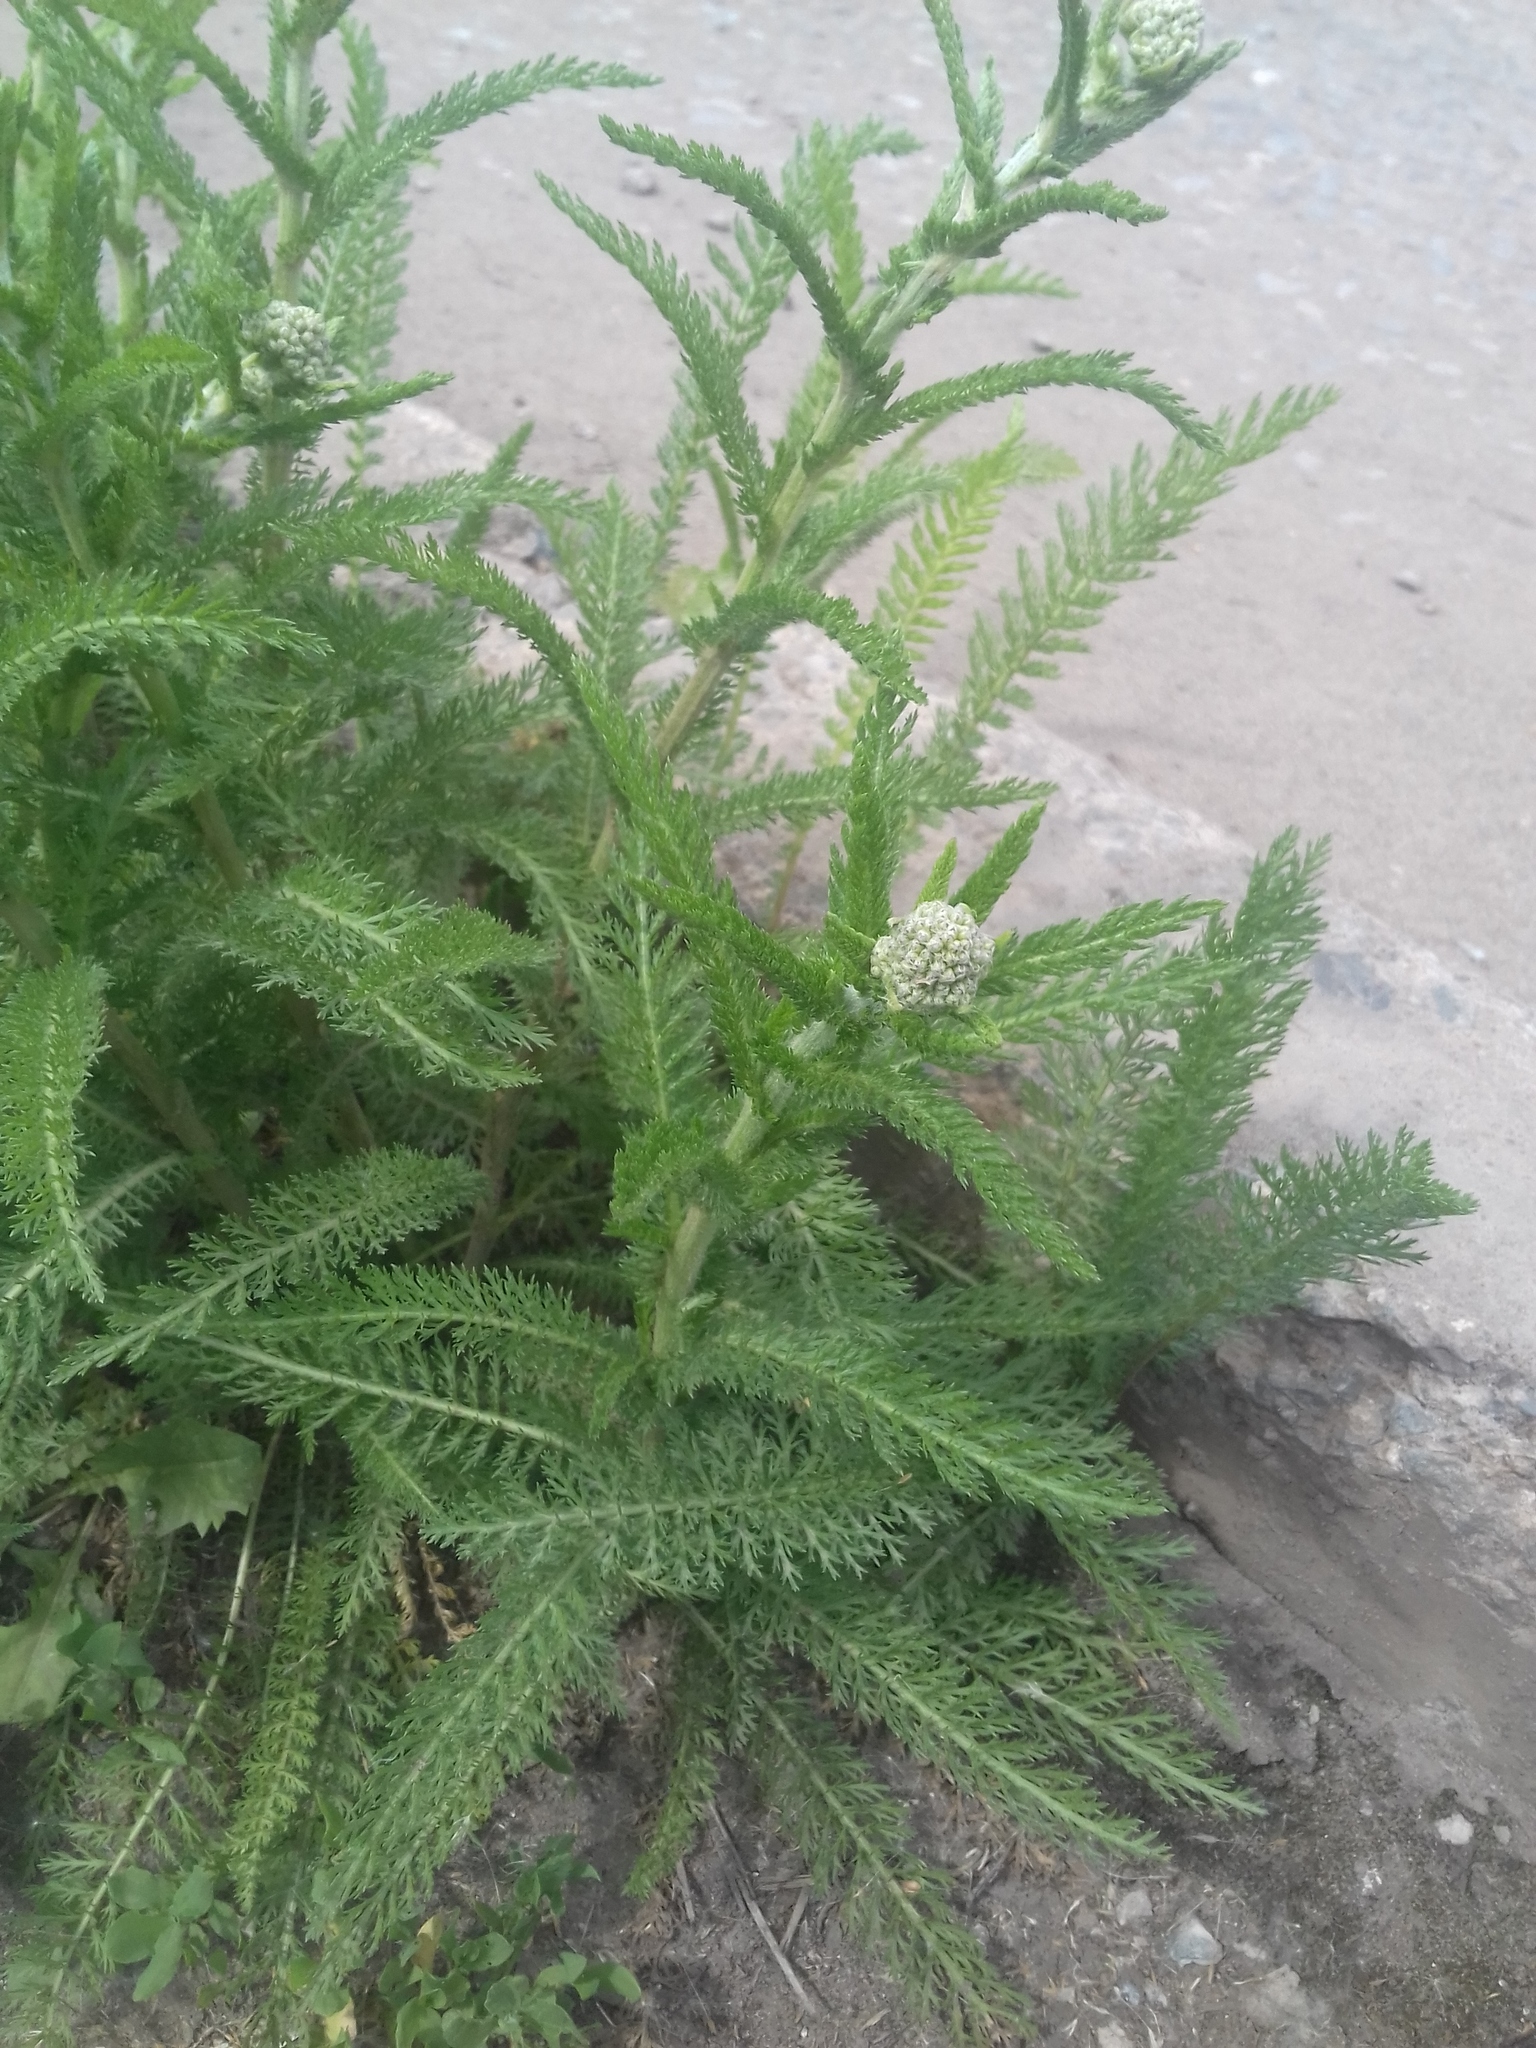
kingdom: Plantae
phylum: Tracheophyta
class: Magnoliopsida
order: Asterales
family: Asteraceae
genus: Achillea
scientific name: Achillea millefolium
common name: Yarrow
